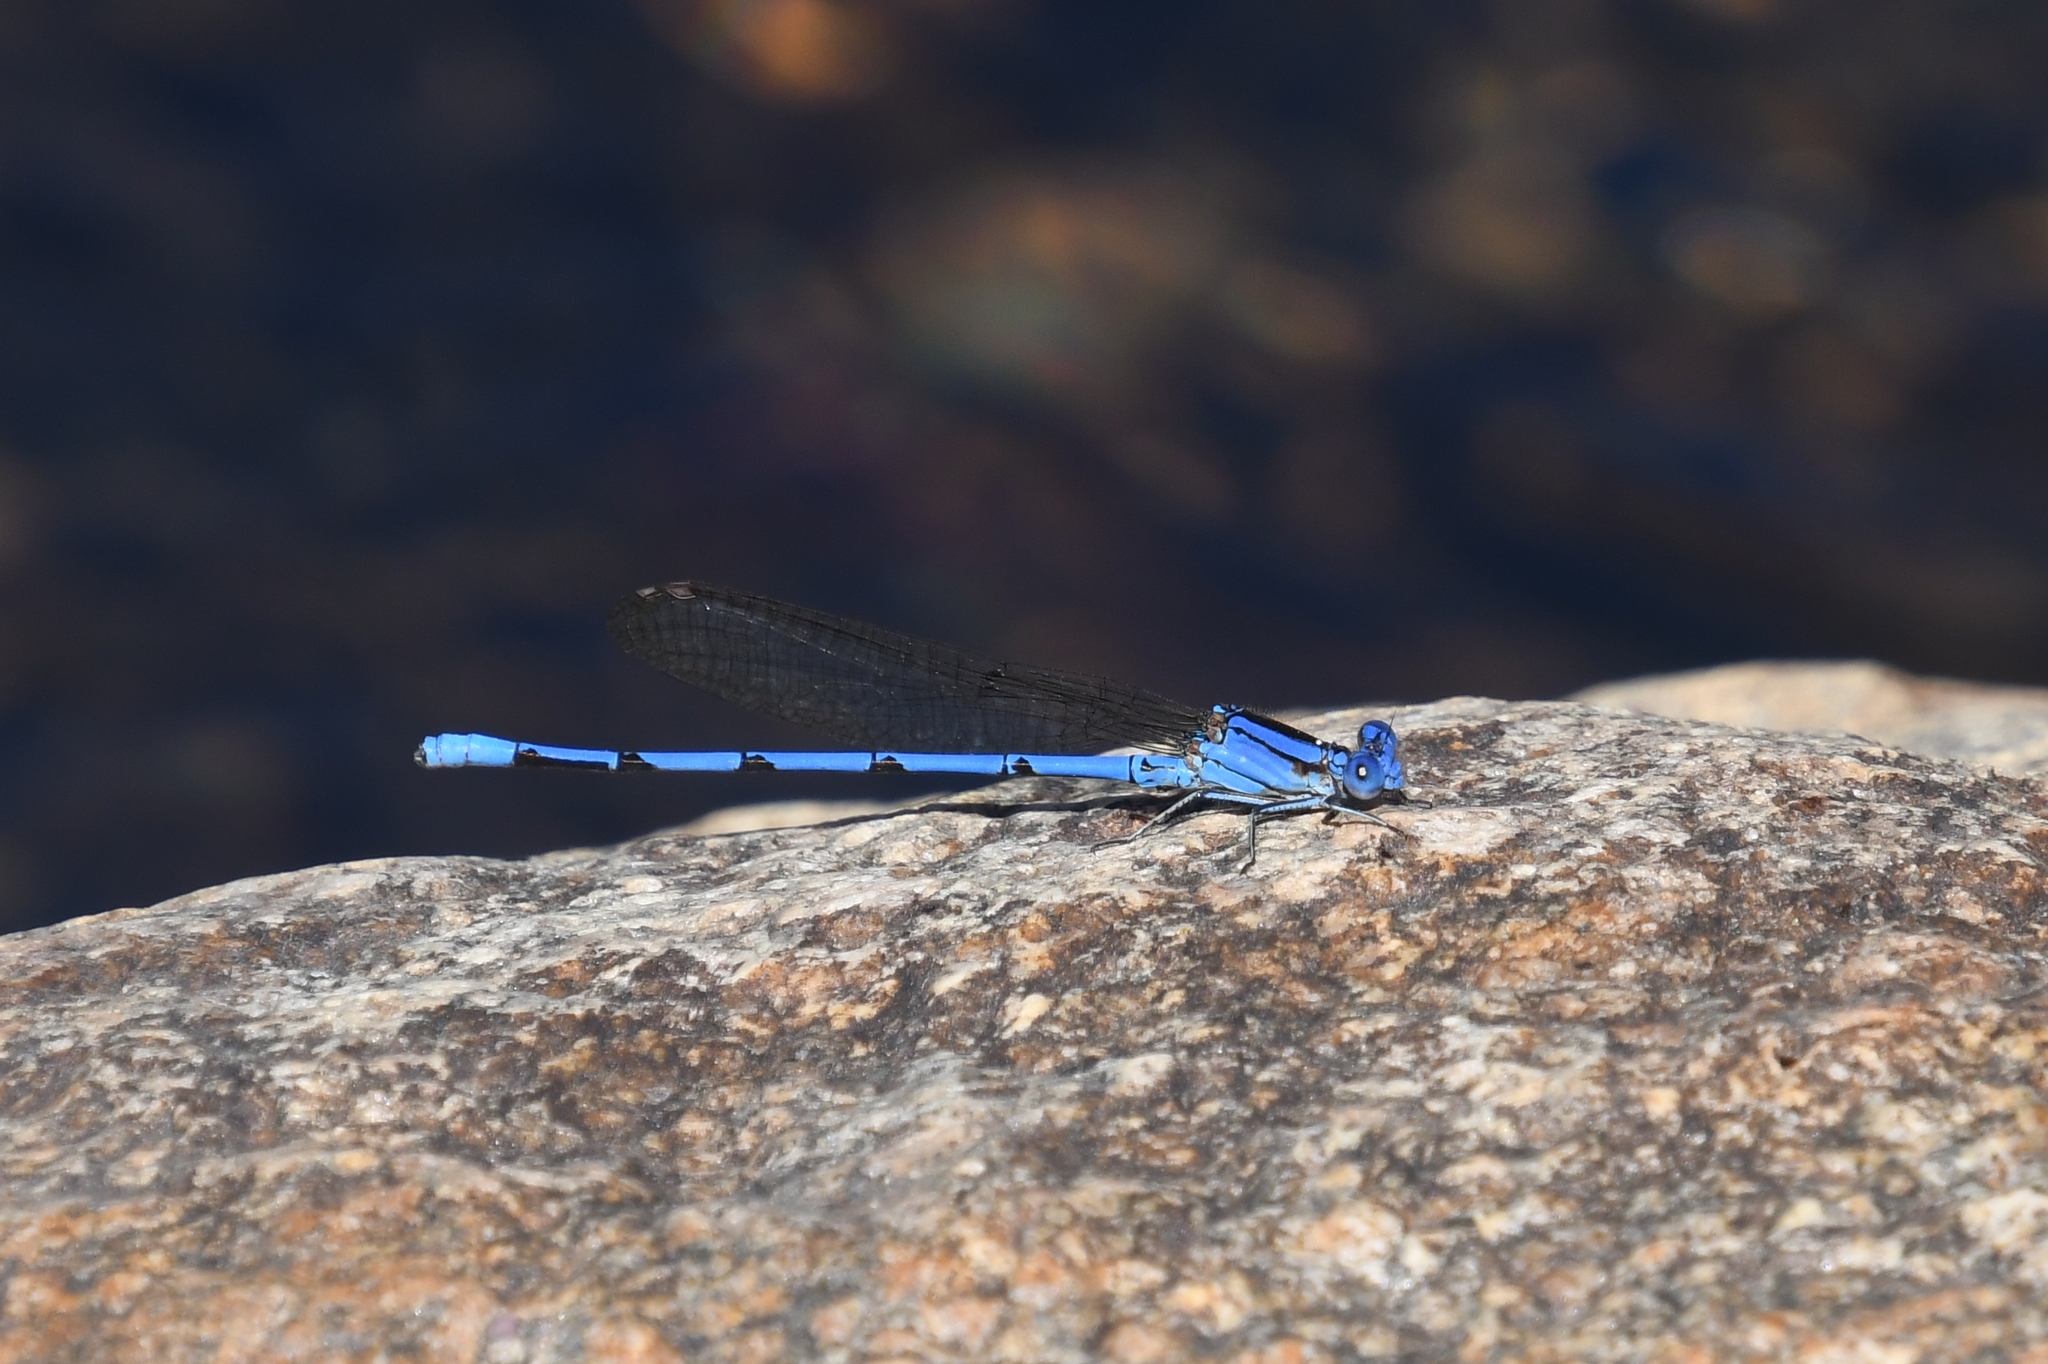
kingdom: Animalia
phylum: Arthropoda
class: Insecta
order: Odonata
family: Coenagrionidae
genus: Argia
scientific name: Argia anceps
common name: Cerulean dancer
